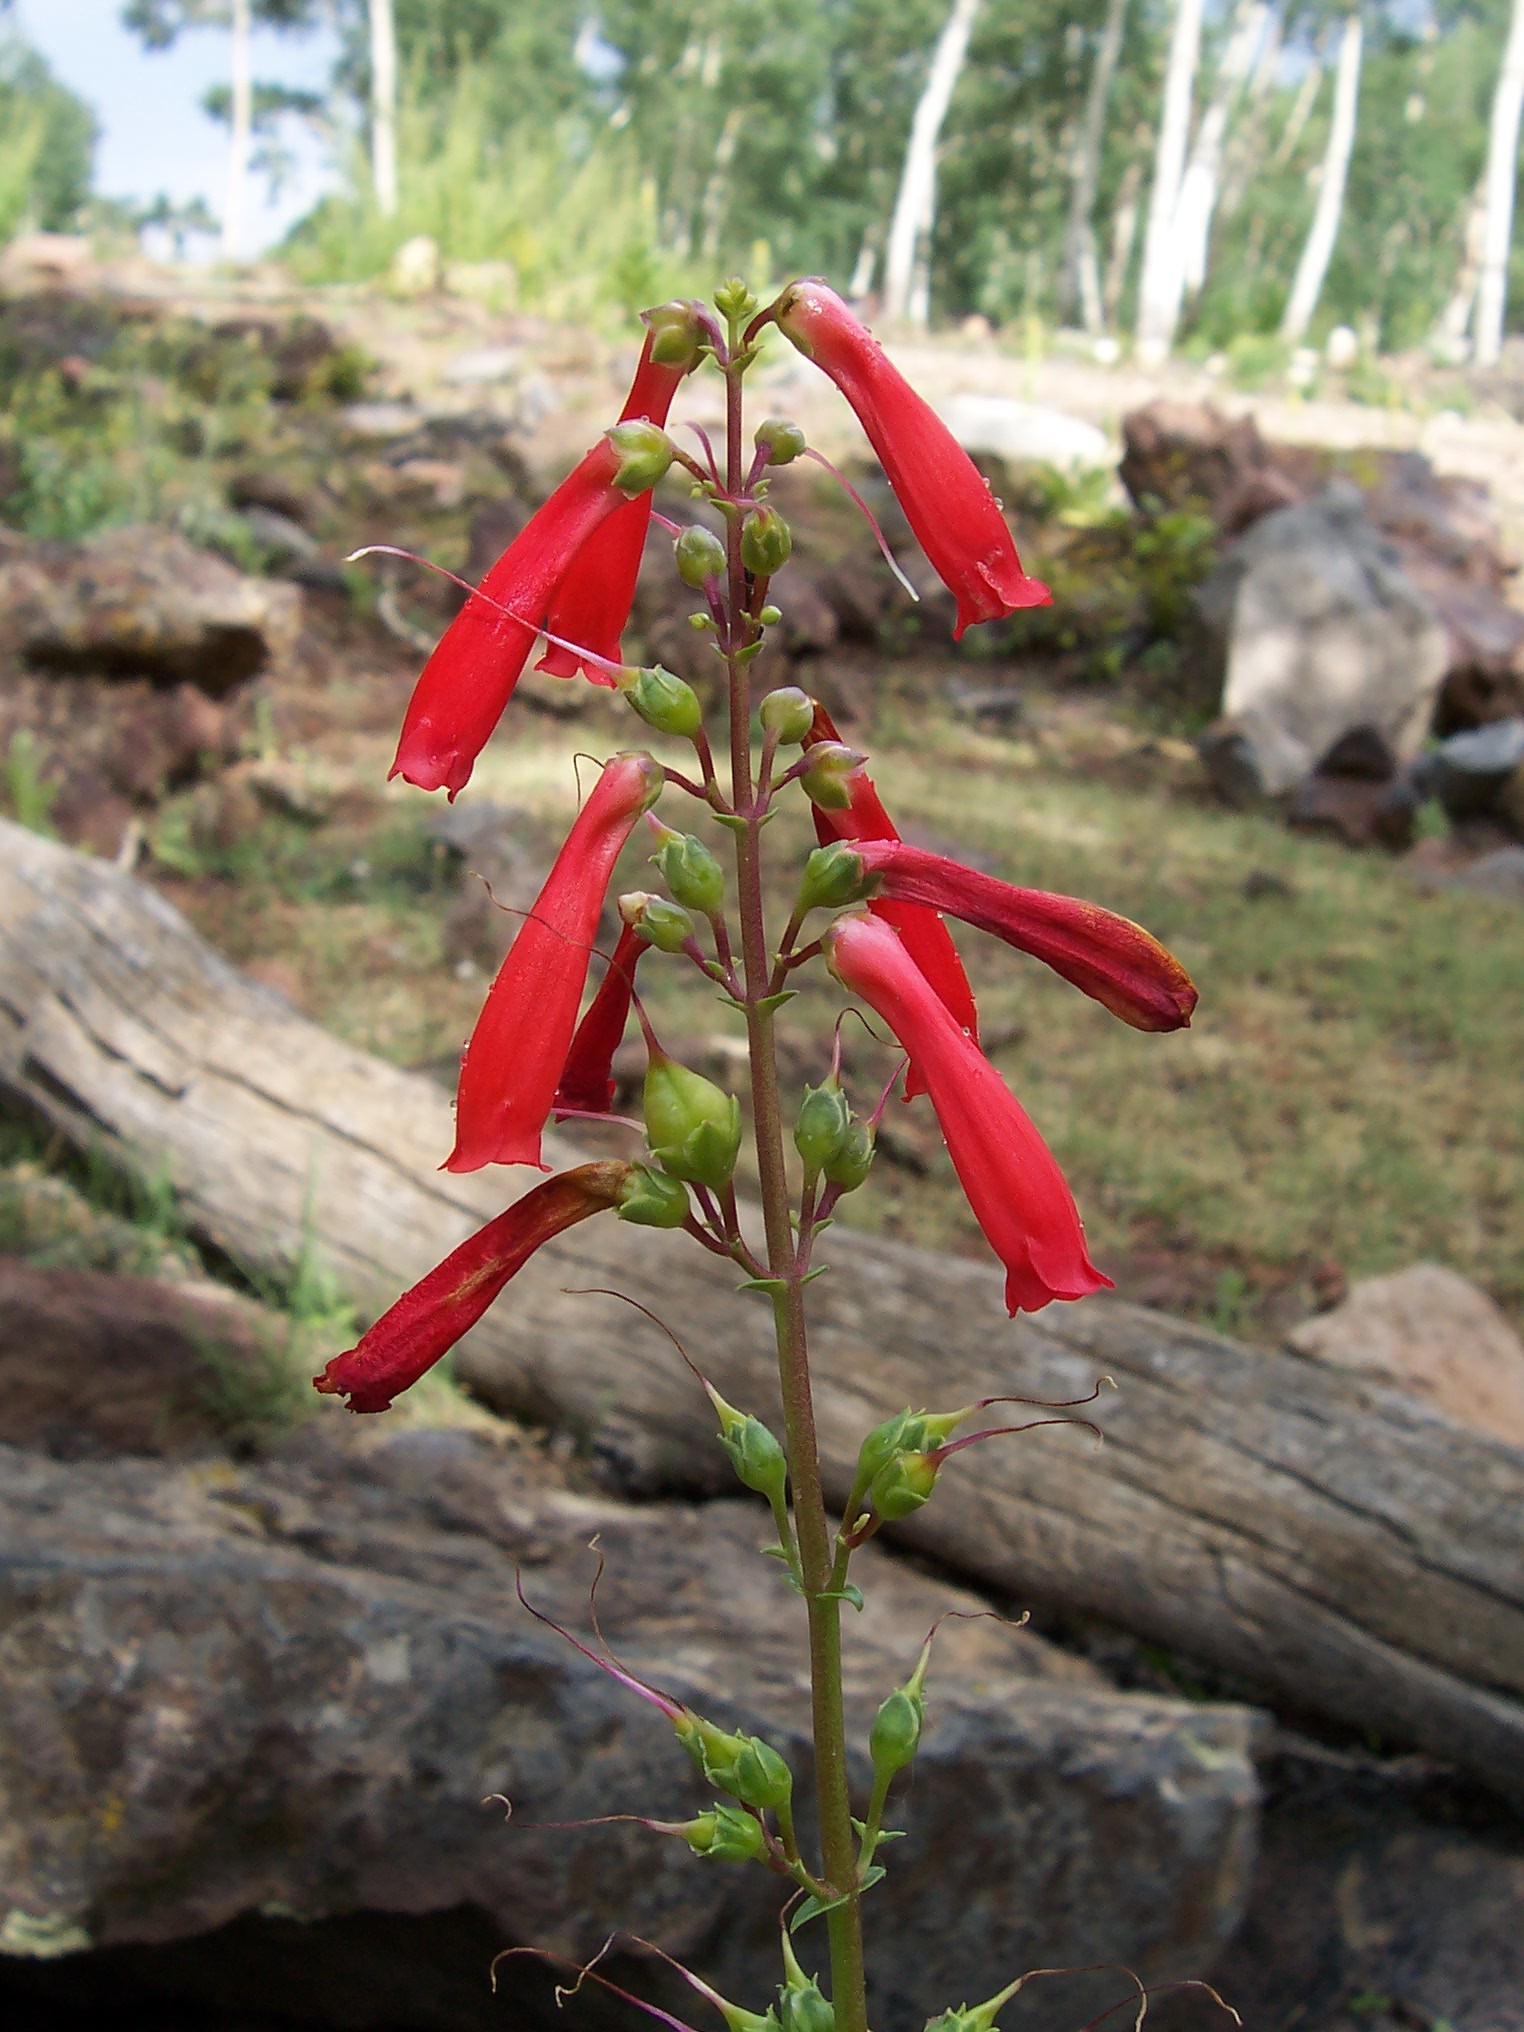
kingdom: Plantae
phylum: Tracheophyta
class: Magnoliopsida
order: Lamiales
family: Plantaginaceae
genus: Penstemon
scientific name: Penstemon eatonii
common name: Eaton's penstemon
